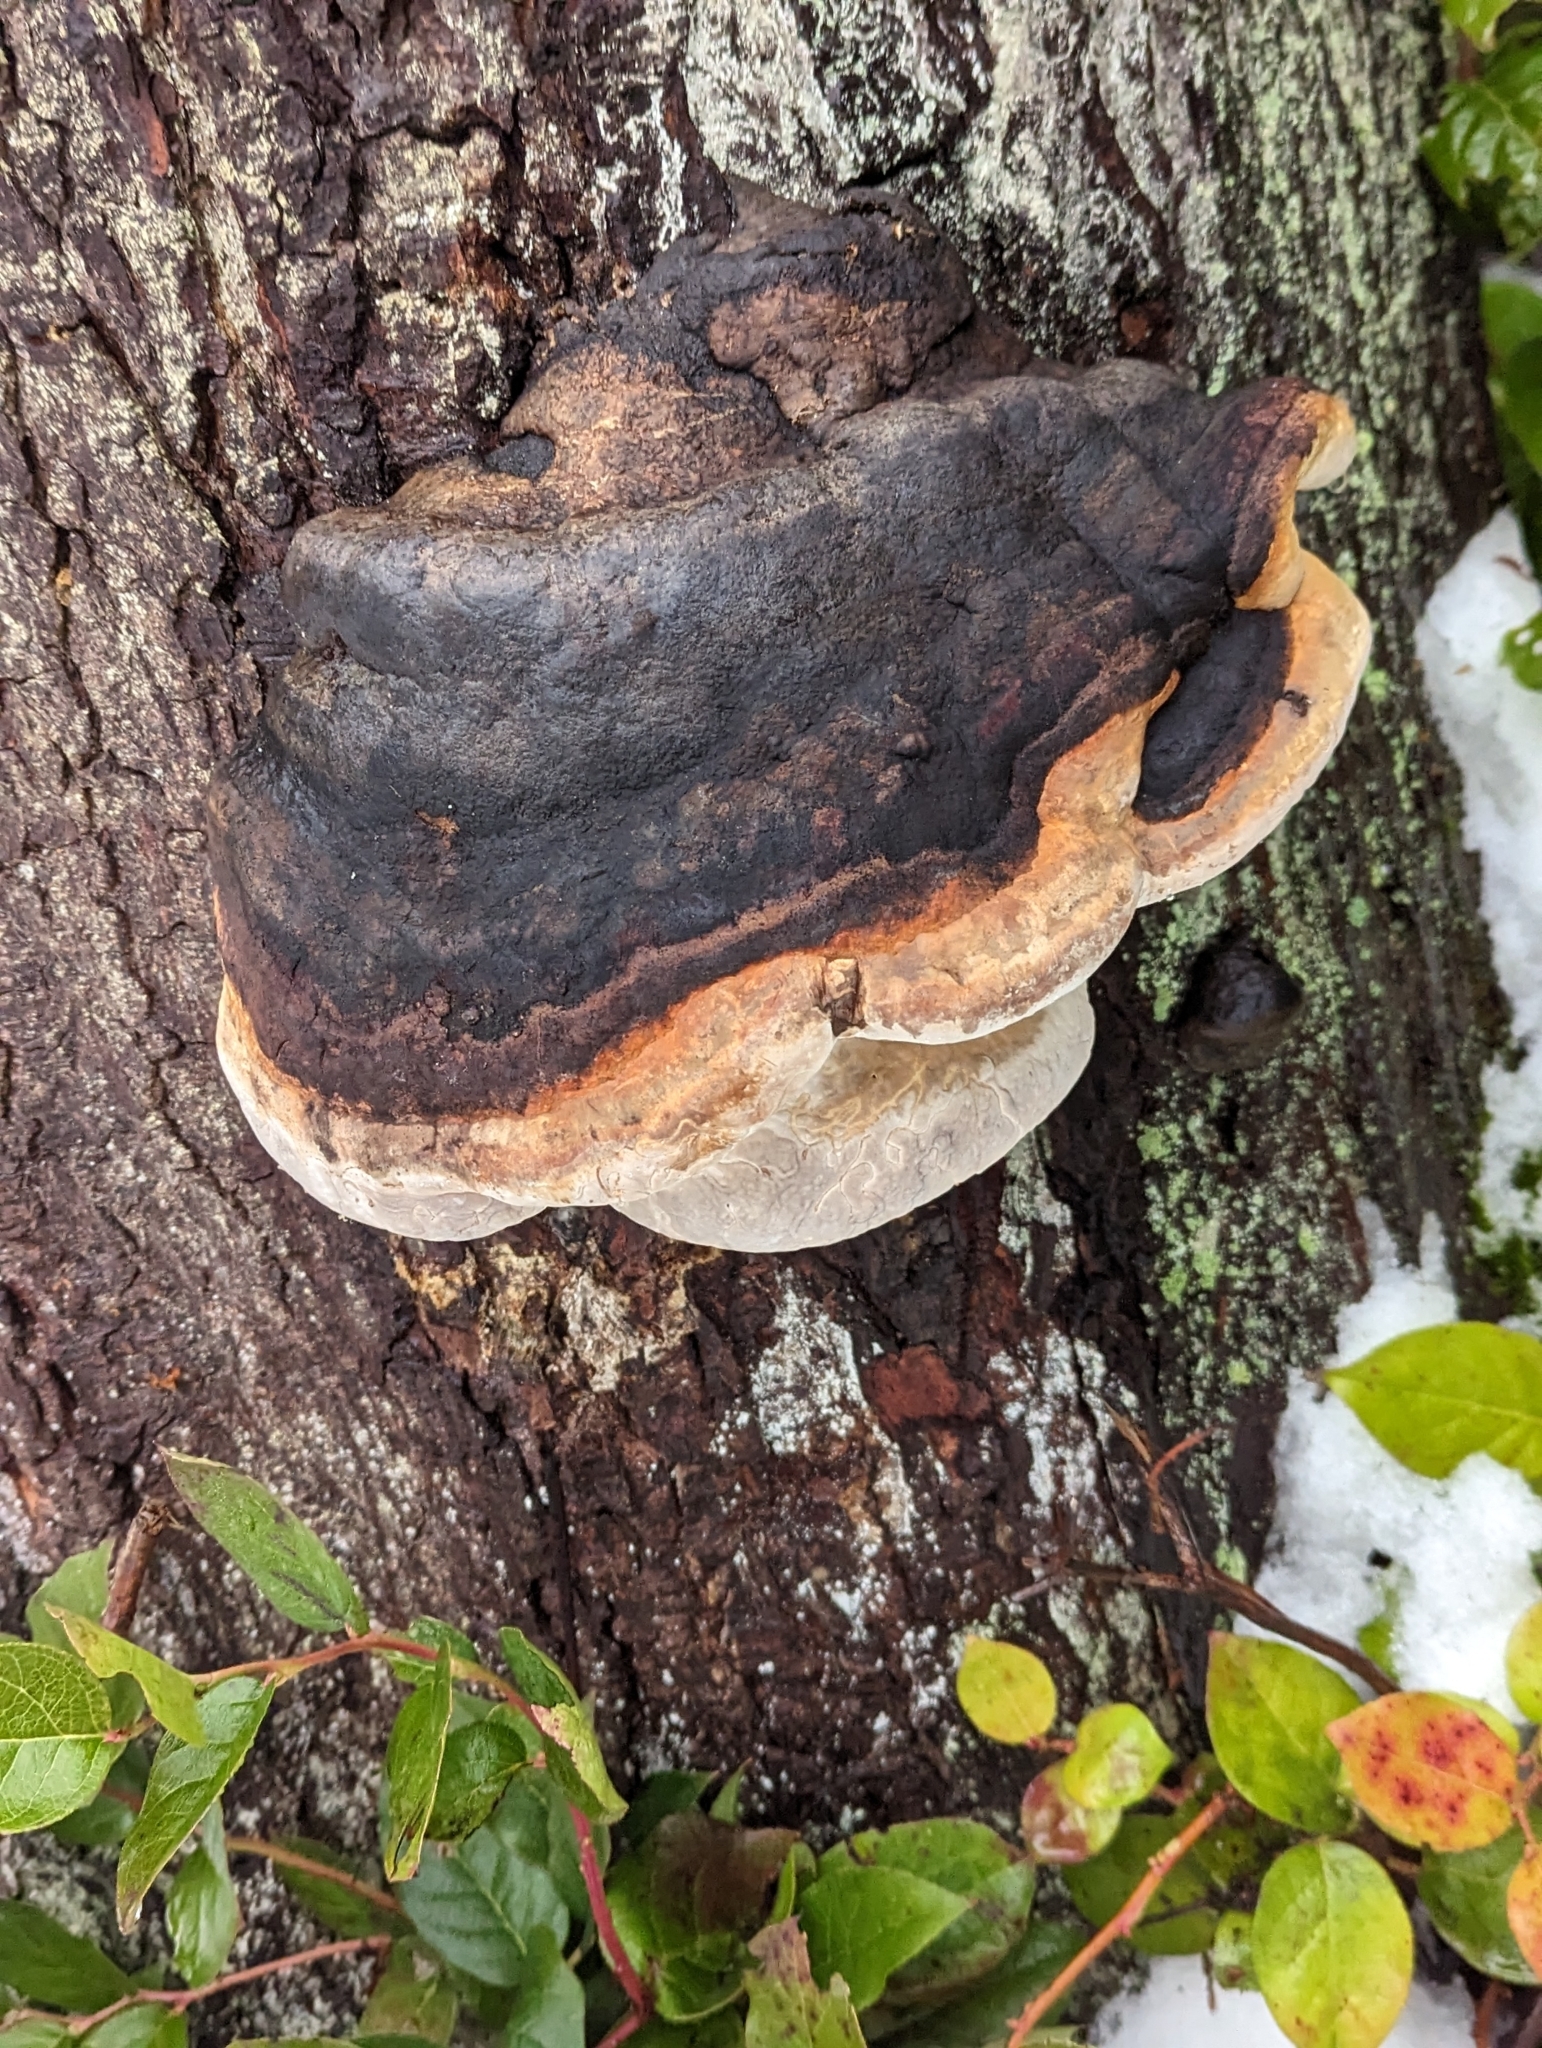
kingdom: Fungi
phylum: Basidiomycota
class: Agaricomycetes
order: Polyporales
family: Fomitopsidaceae
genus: Fomitopsis
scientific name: Fomitopsis mounceae
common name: Northern red belt
